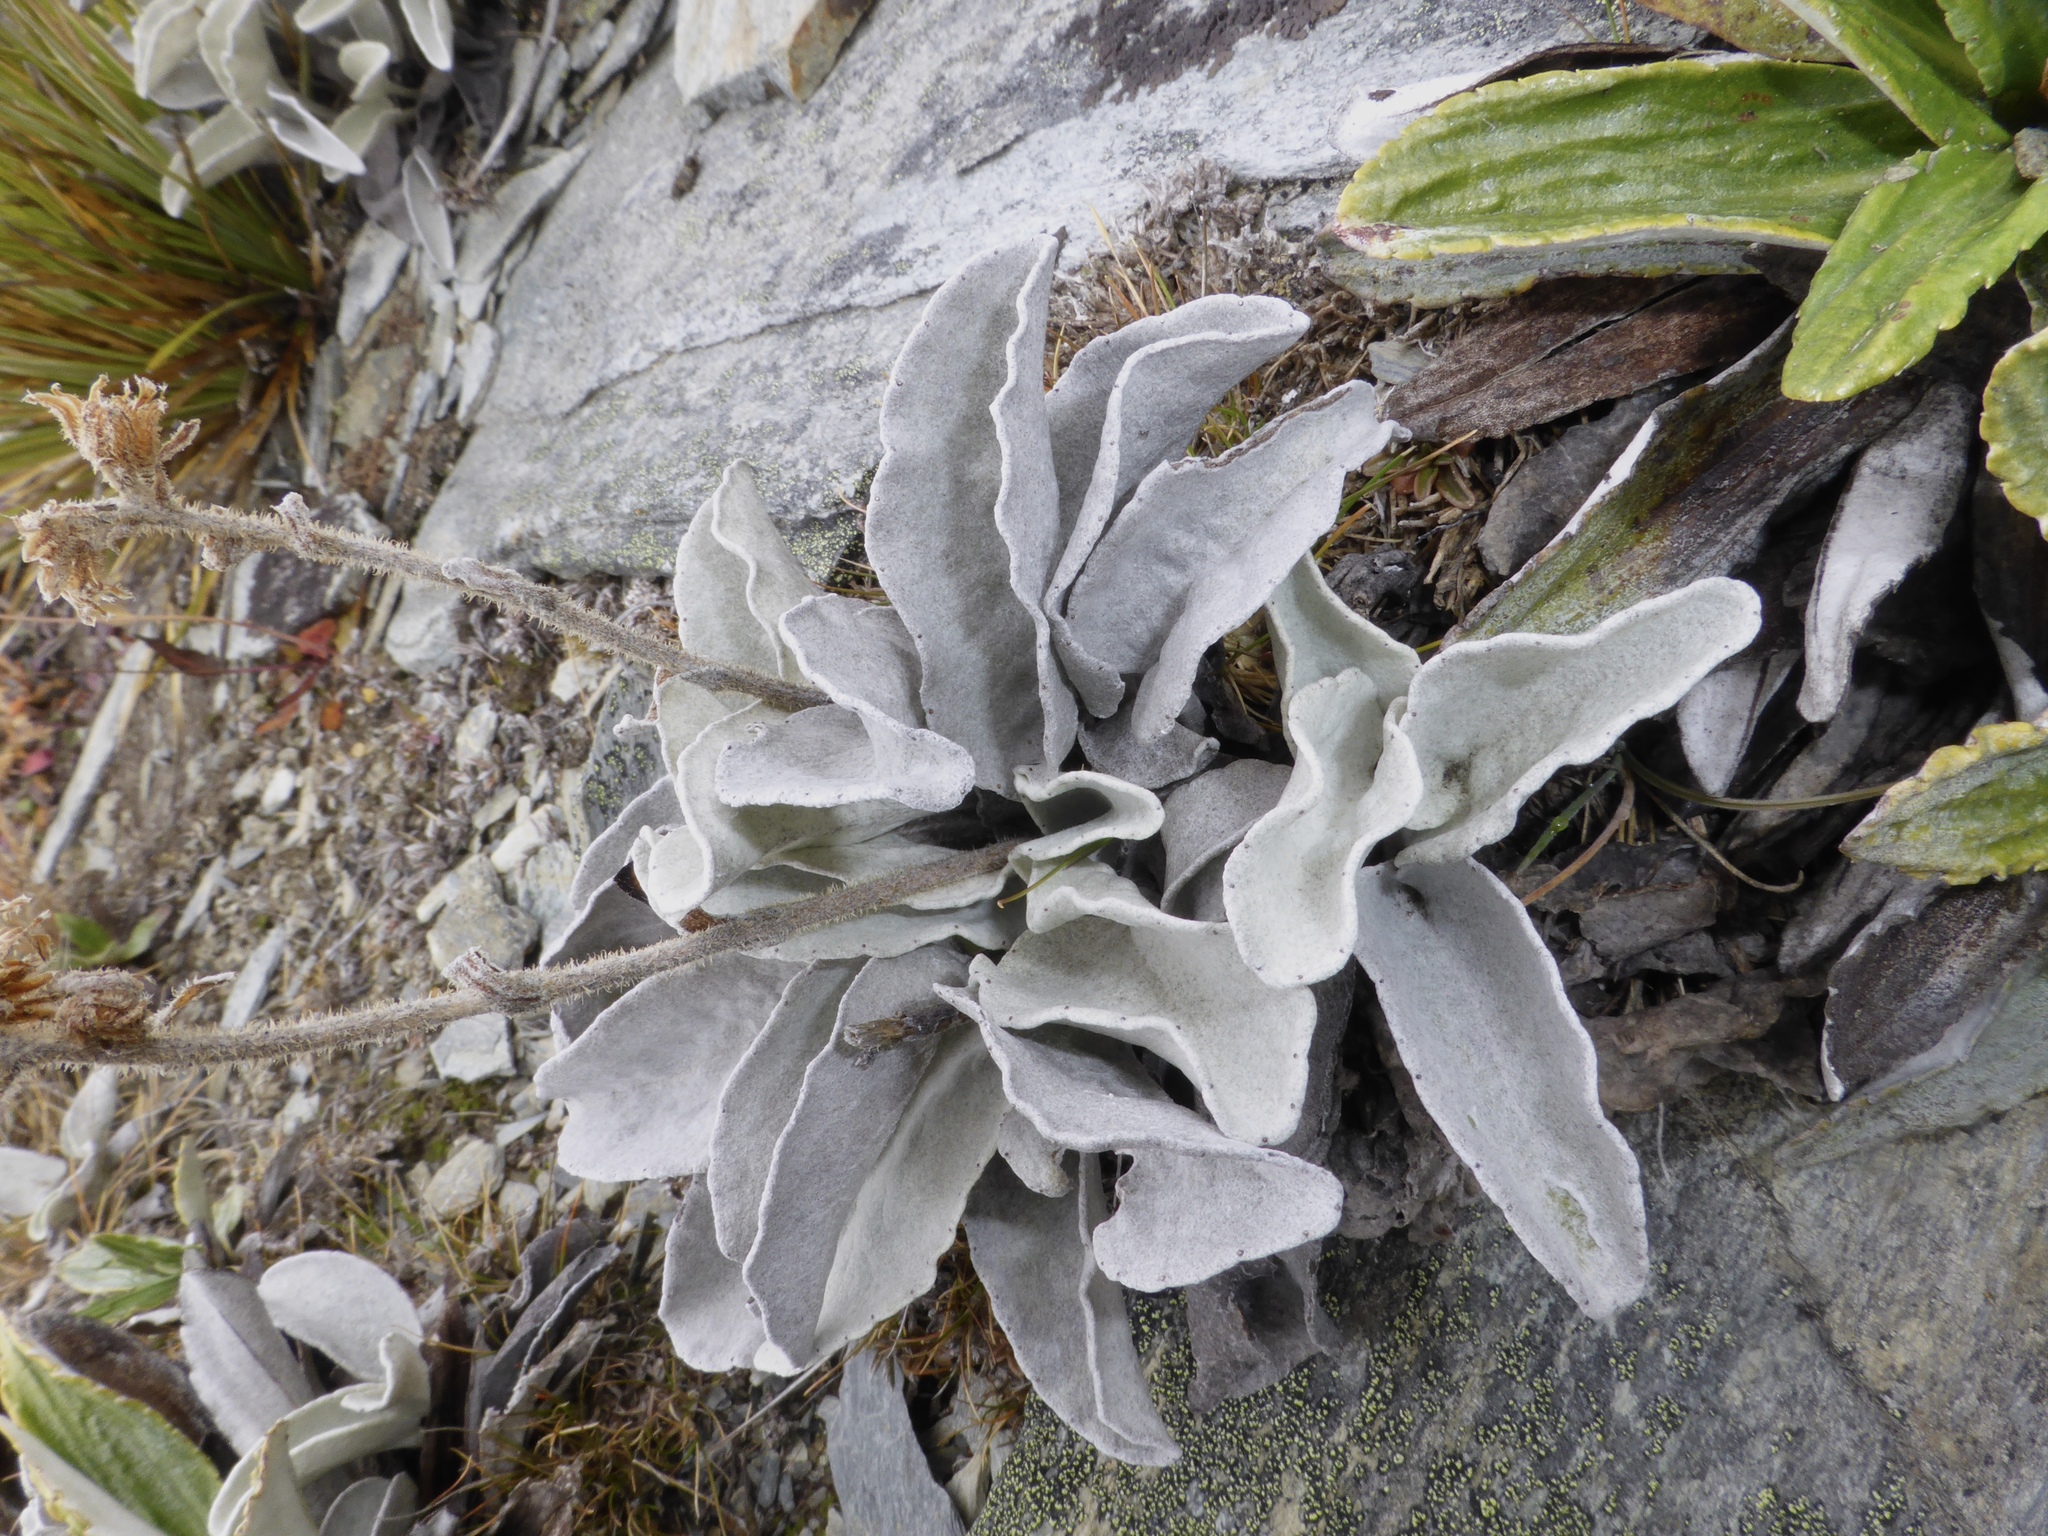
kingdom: Plantae
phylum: Tracheophyta
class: Magnoliopsida
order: Asterales
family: Asteraceae
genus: Brachyglottis
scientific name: Brachyglottis haastii
